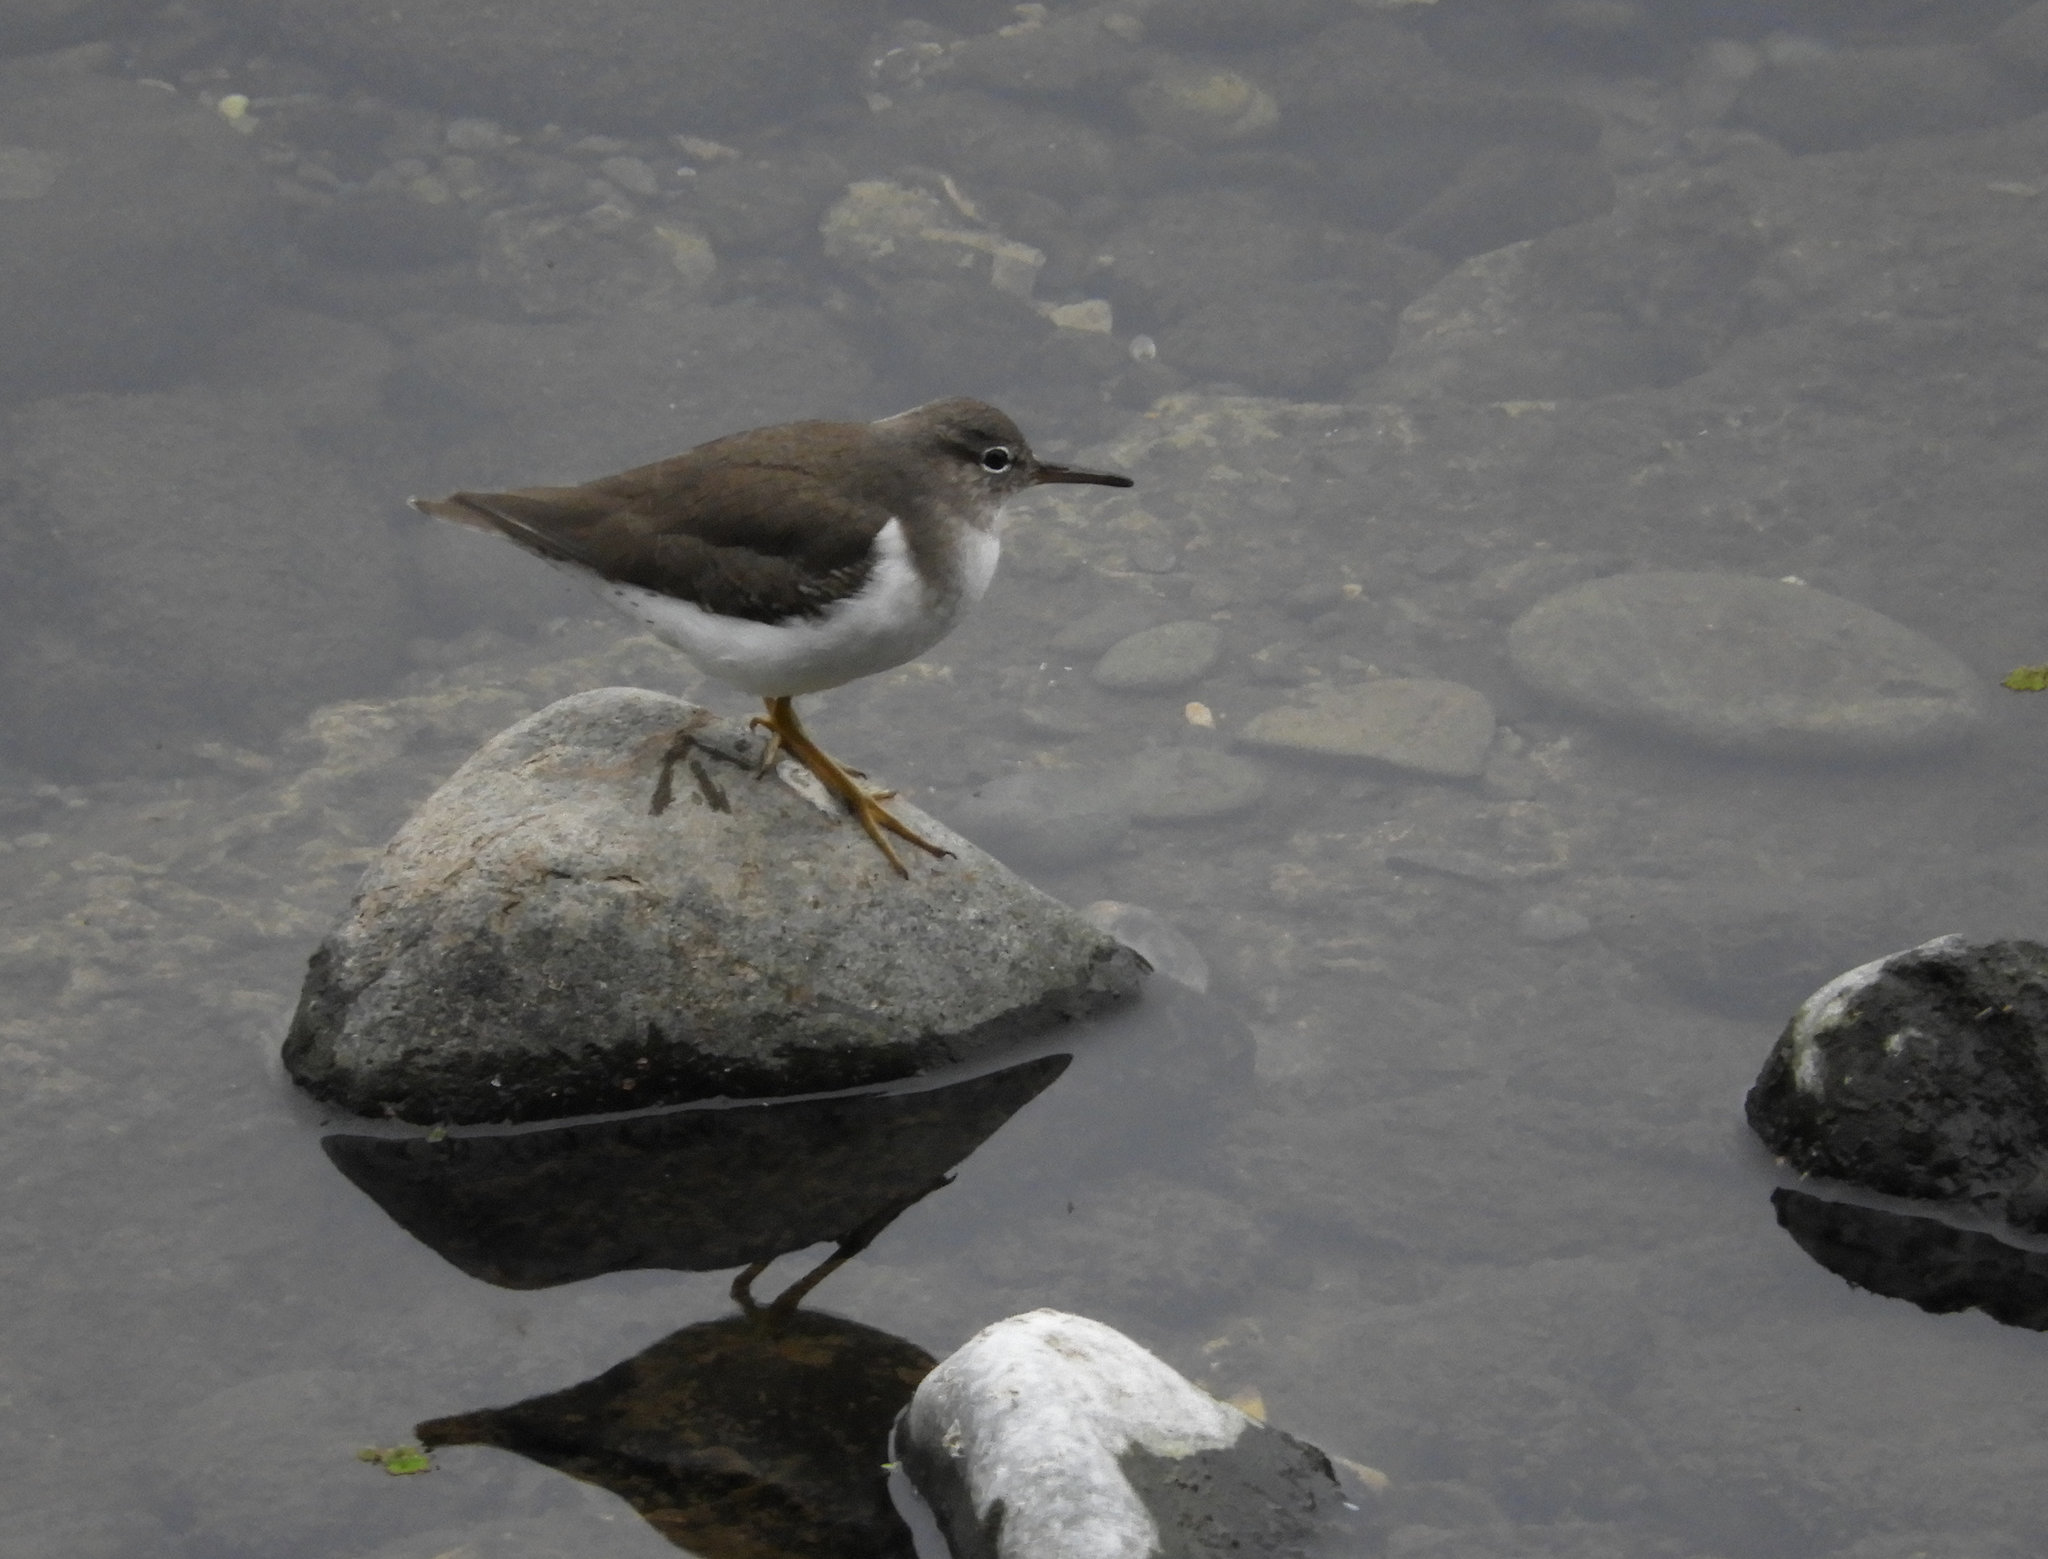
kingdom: Animalia
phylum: Chordata
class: Aves
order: Charadriiformes
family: Scolopacidae
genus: Actitis
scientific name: Actitis macularius
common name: Spotted sandpiper
